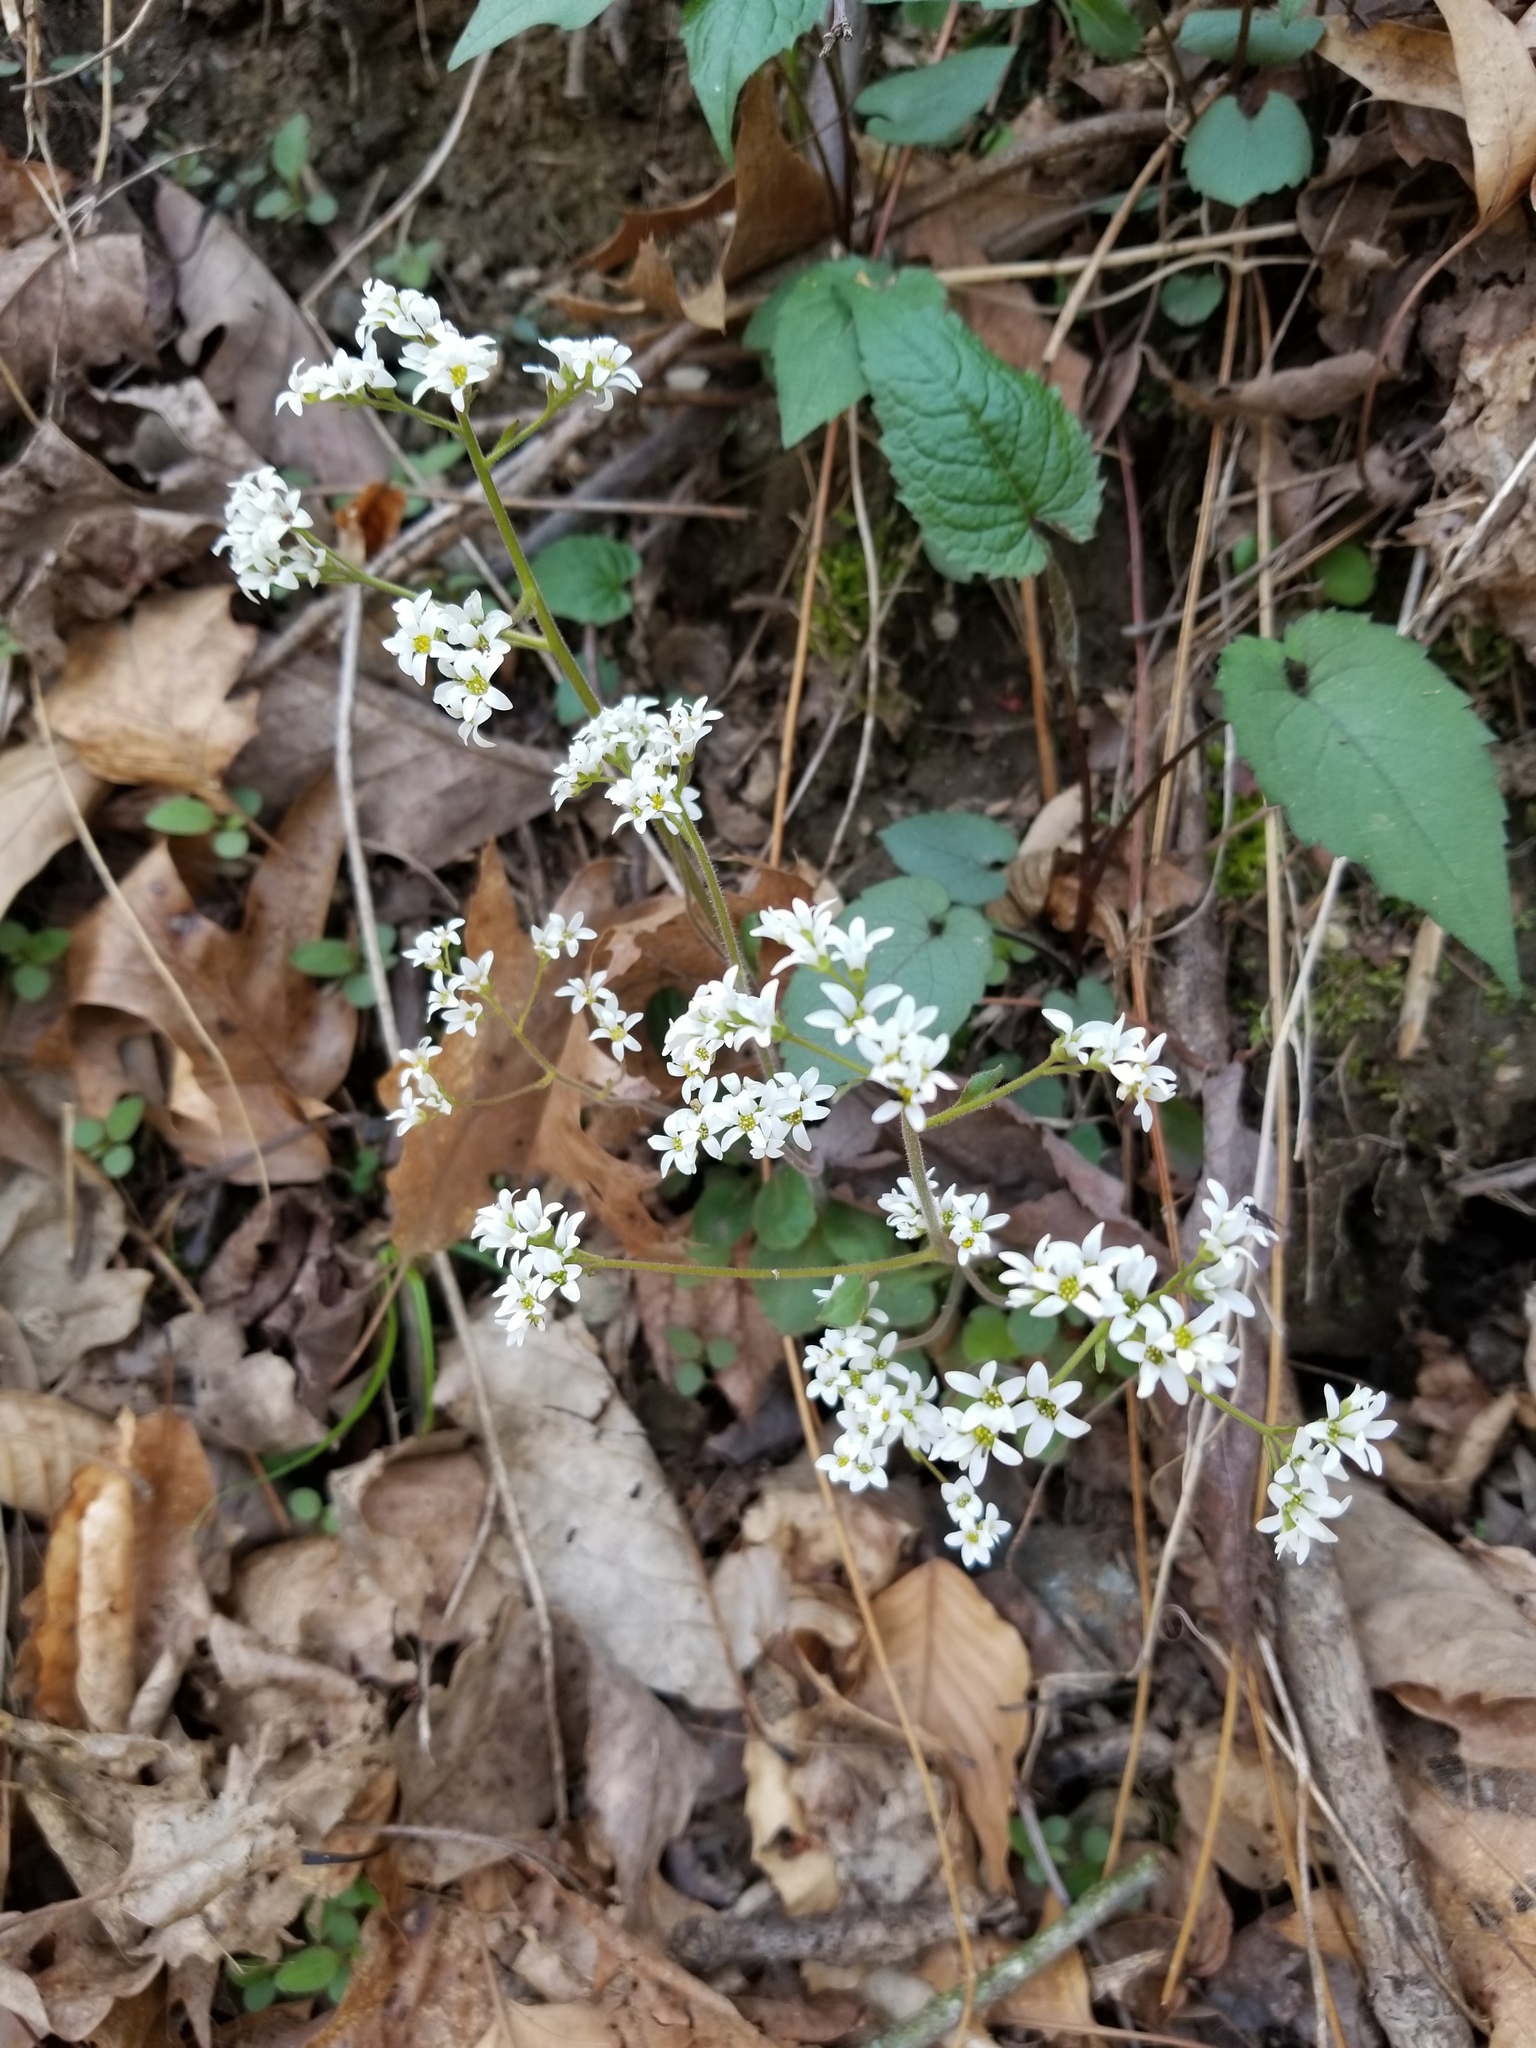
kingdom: Plantae
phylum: Tracheophyta
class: Magnoliopsida
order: Saxifragales
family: Saxifragaceae
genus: Micranthes
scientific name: Micranthes virginiensis
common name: Early saxifrage
